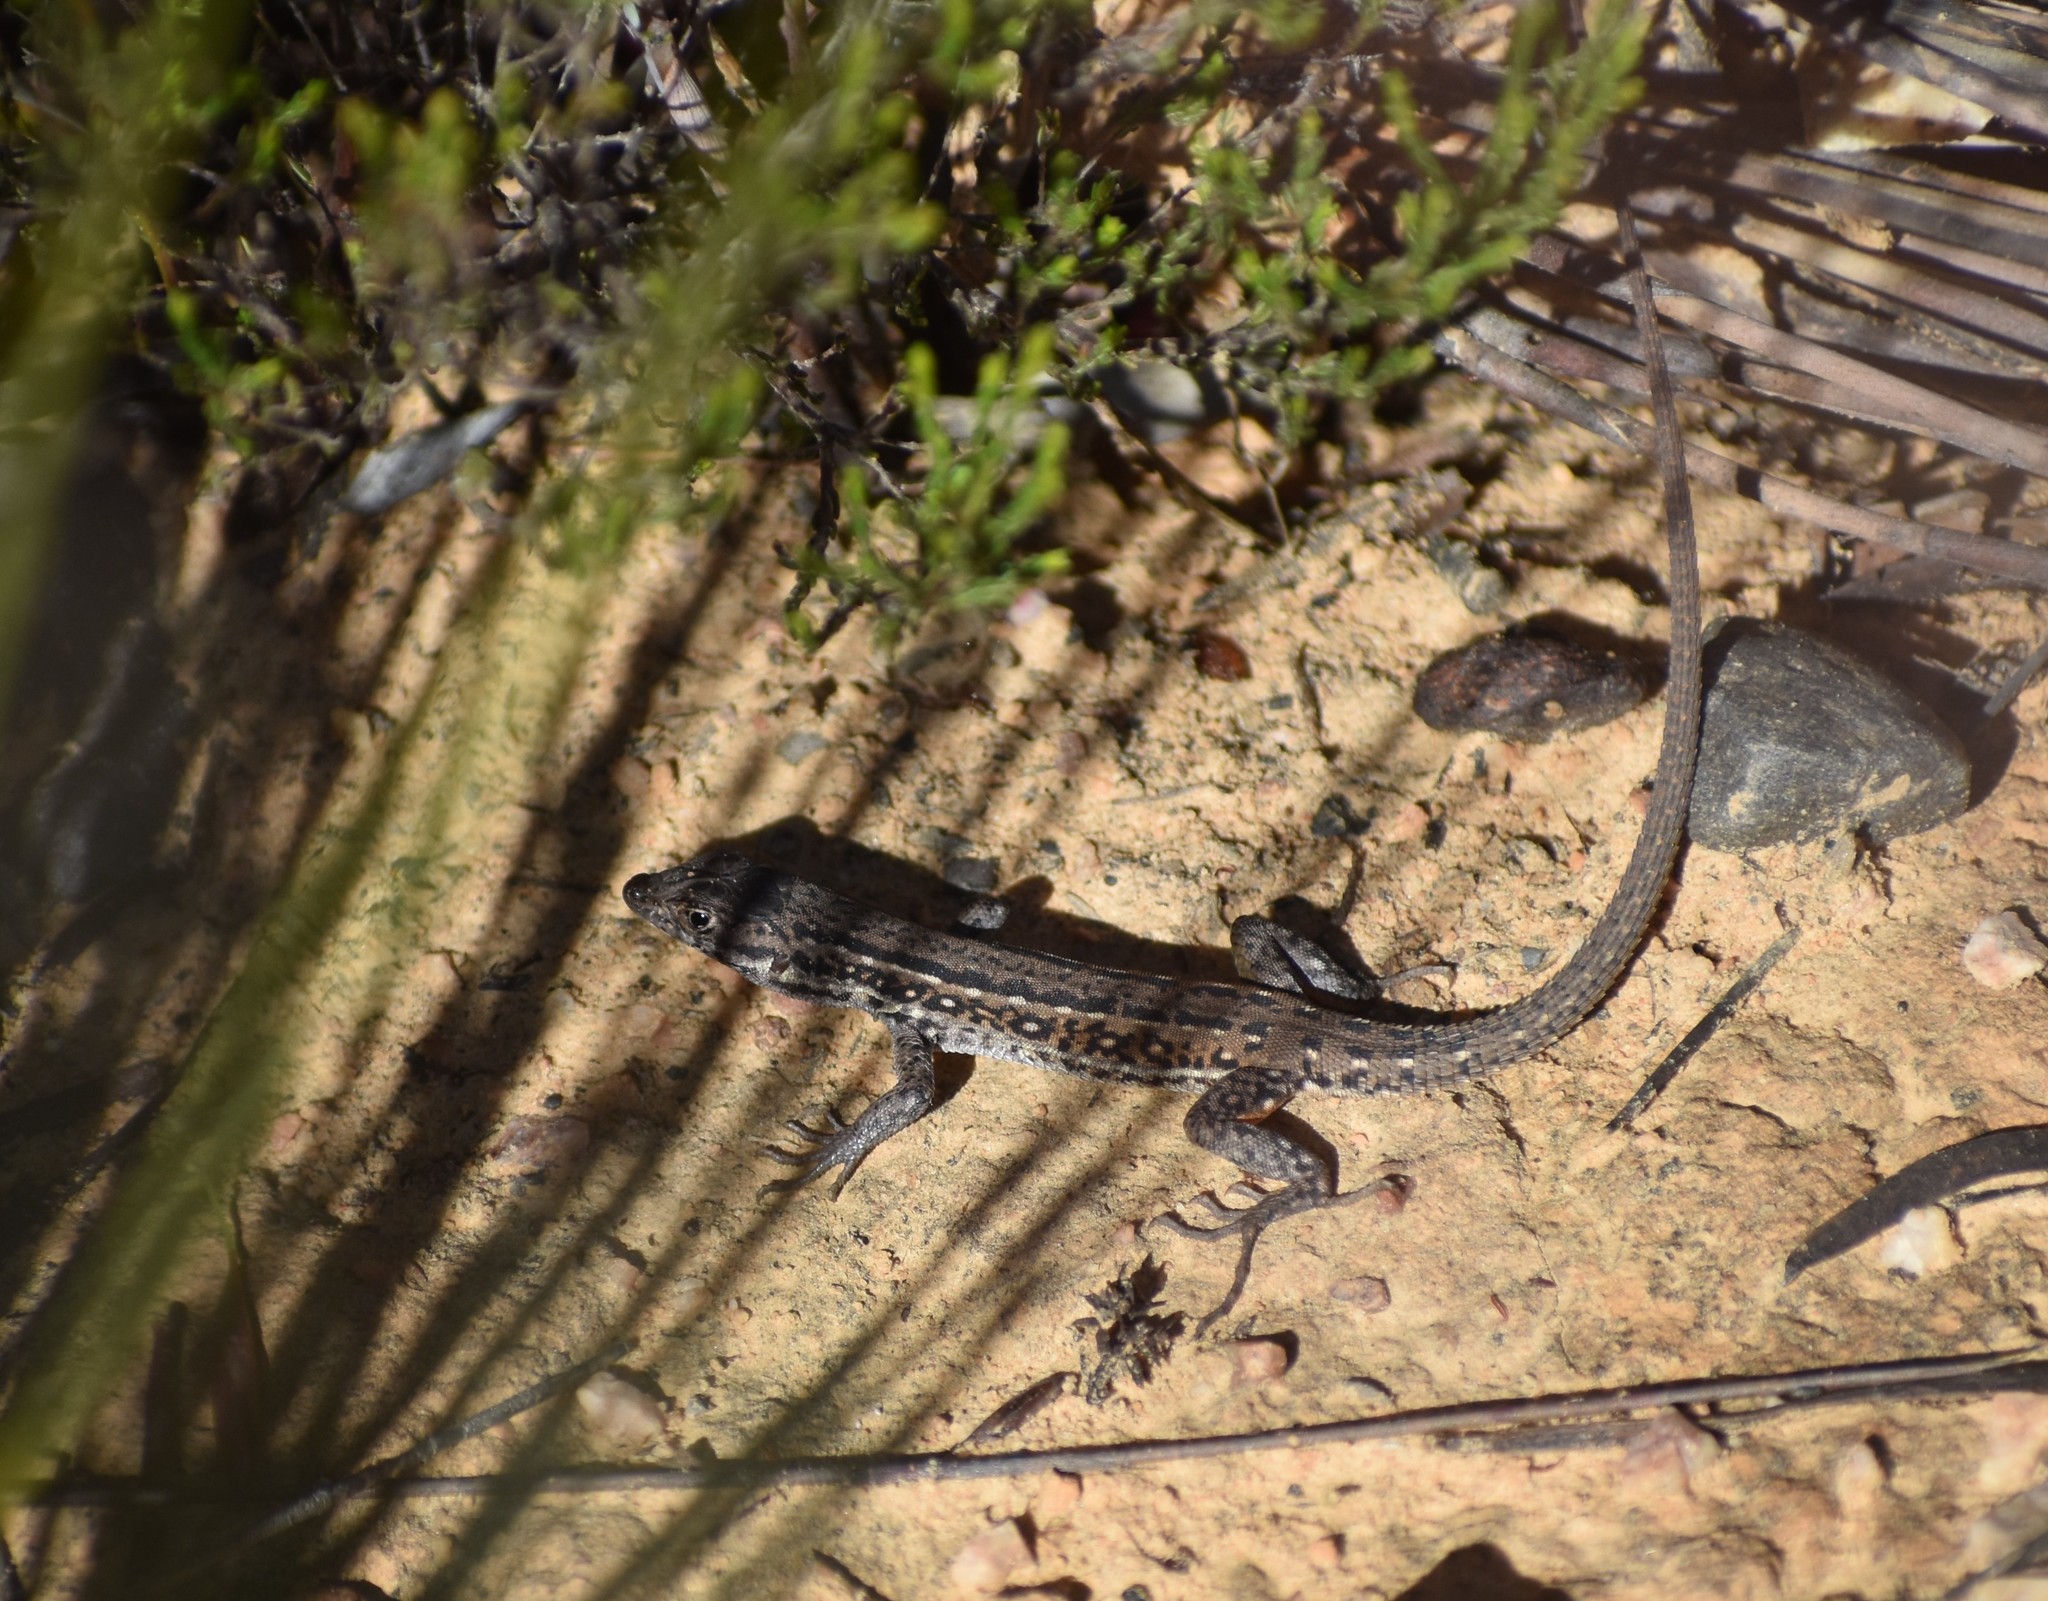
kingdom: Animalia
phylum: Chordata
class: Squamata
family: Lacertidae
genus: Pedioplanis
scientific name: Pedioplanis lineoocellata
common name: Spotted sand lizard
